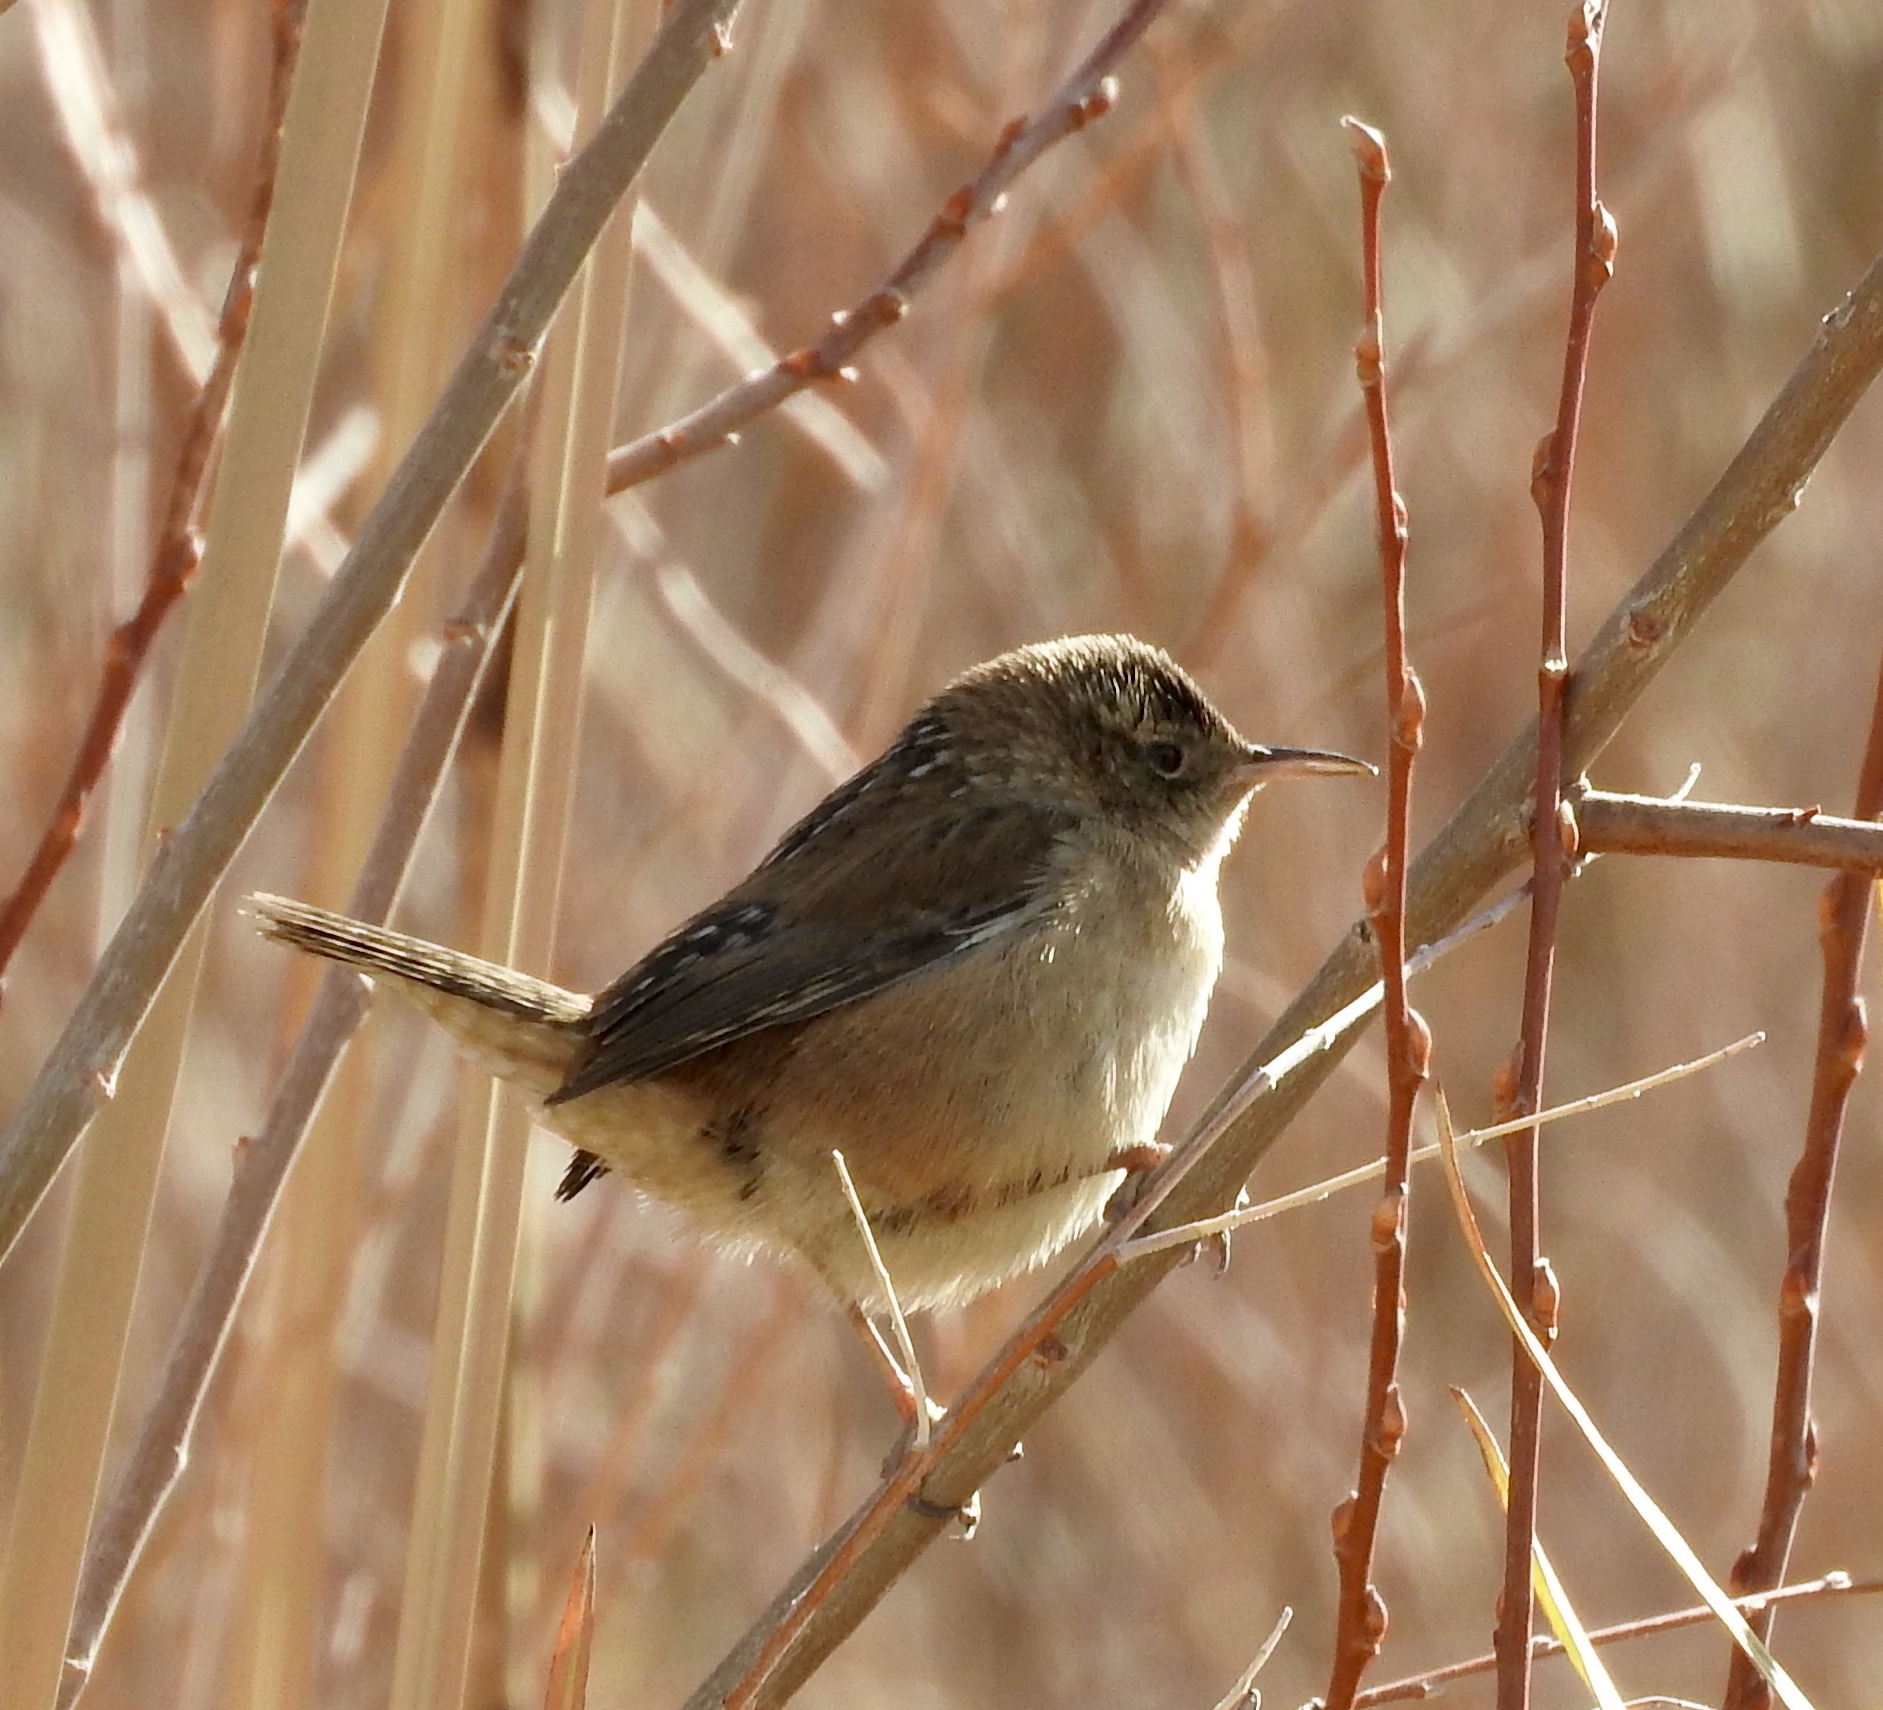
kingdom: Animalia
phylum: Chordata
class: Aves
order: Passeriformes
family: Troglodytidae
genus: Cistothorus
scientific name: Cistothorus palustris
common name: Marsh wren
